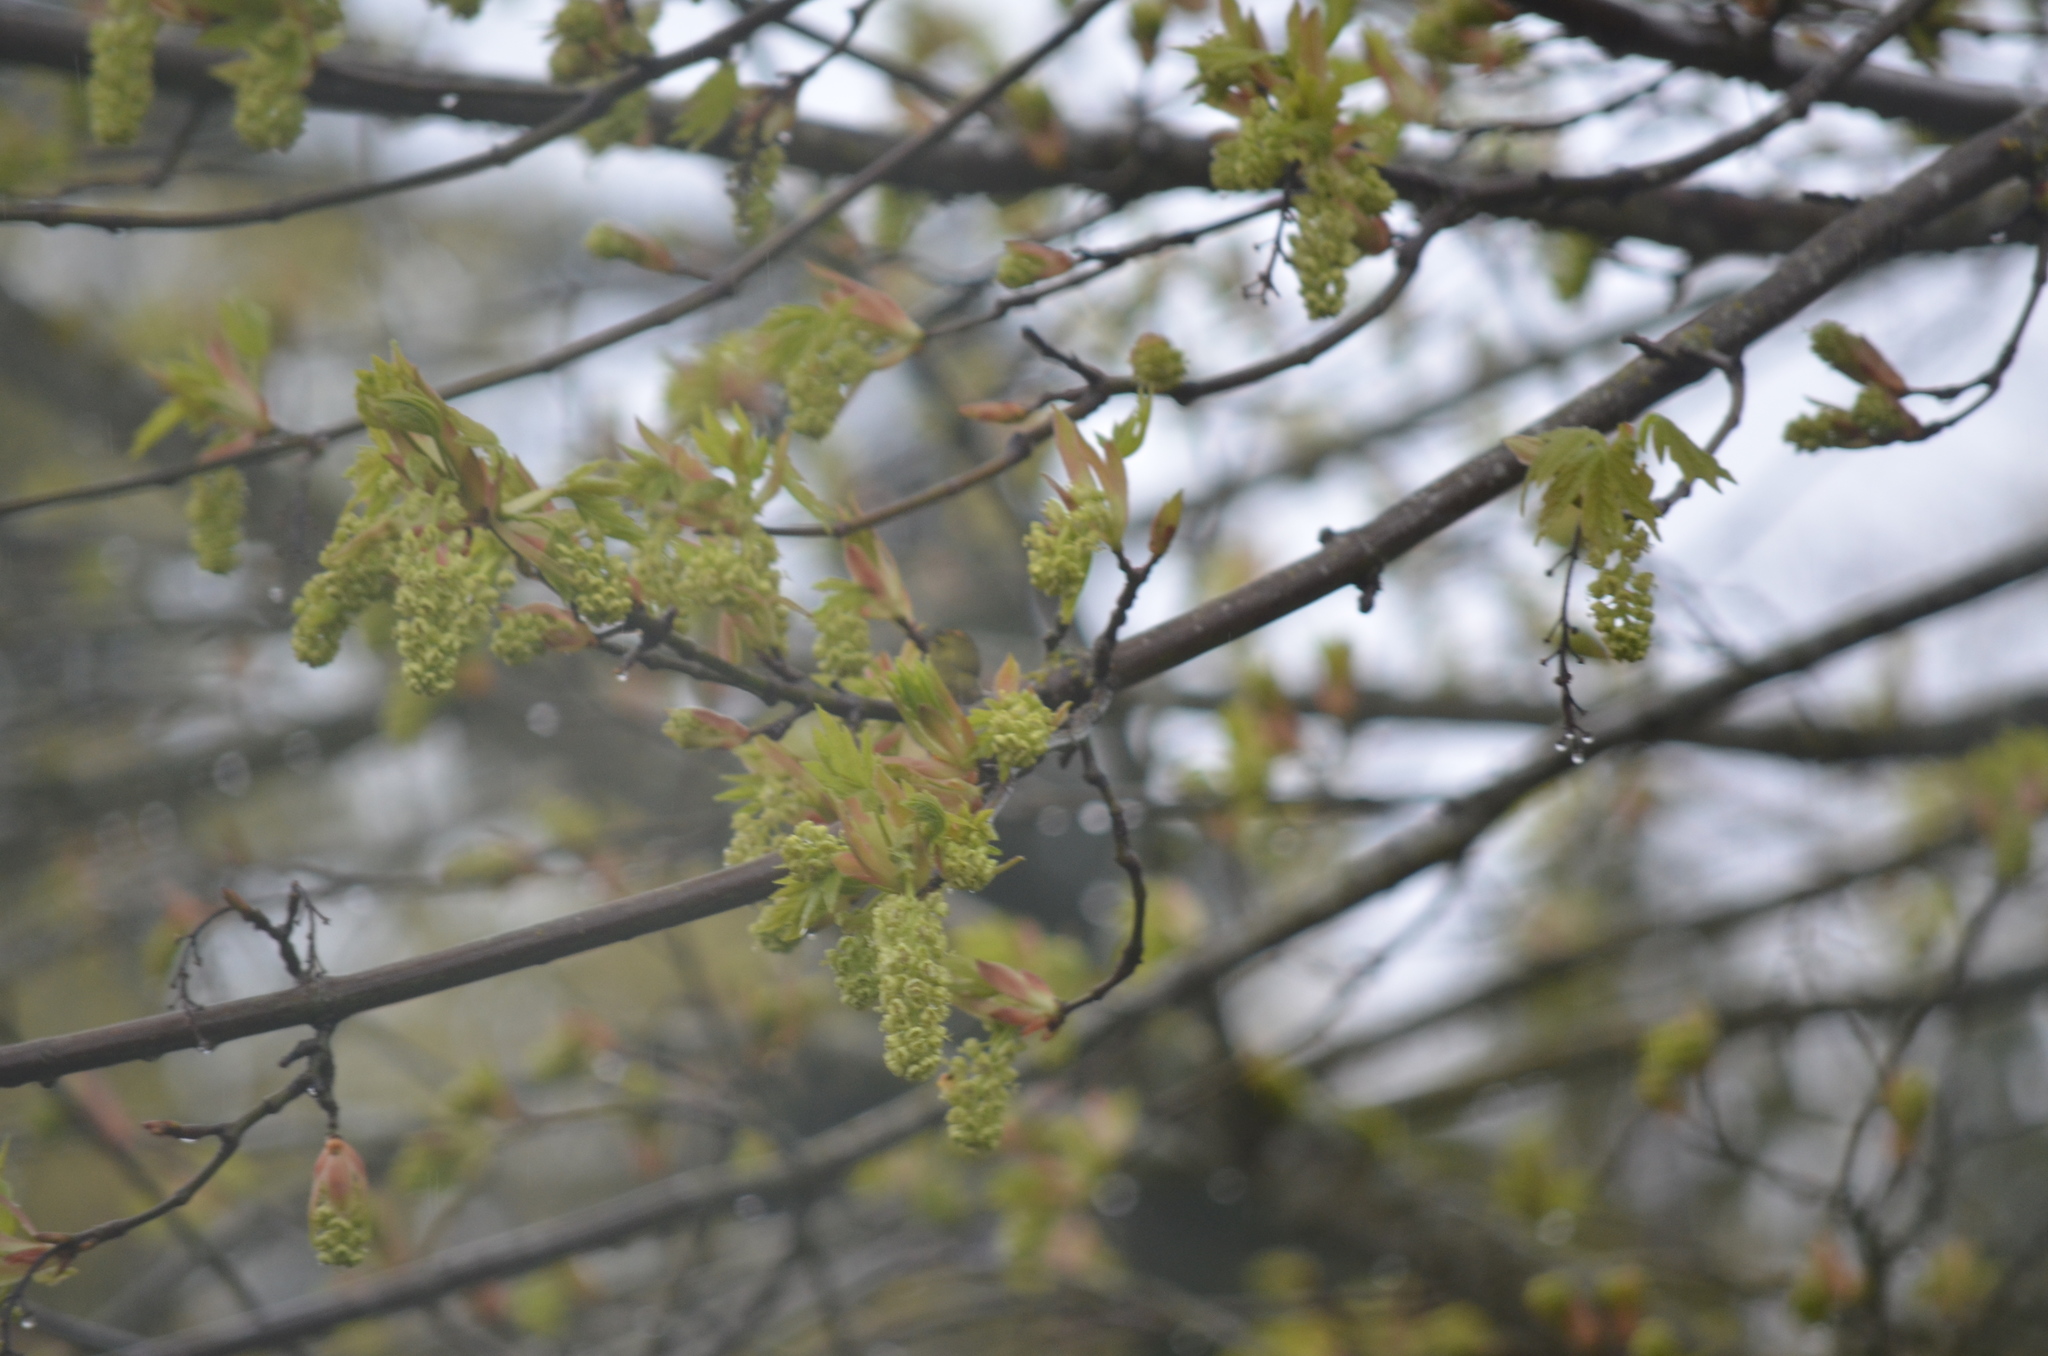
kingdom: Animalia
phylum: Chordata
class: Aves
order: Passeriformes
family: Parulidae
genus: Leiothlypis
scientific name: Leiothlypis celata
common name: Orange-crowned warbler
